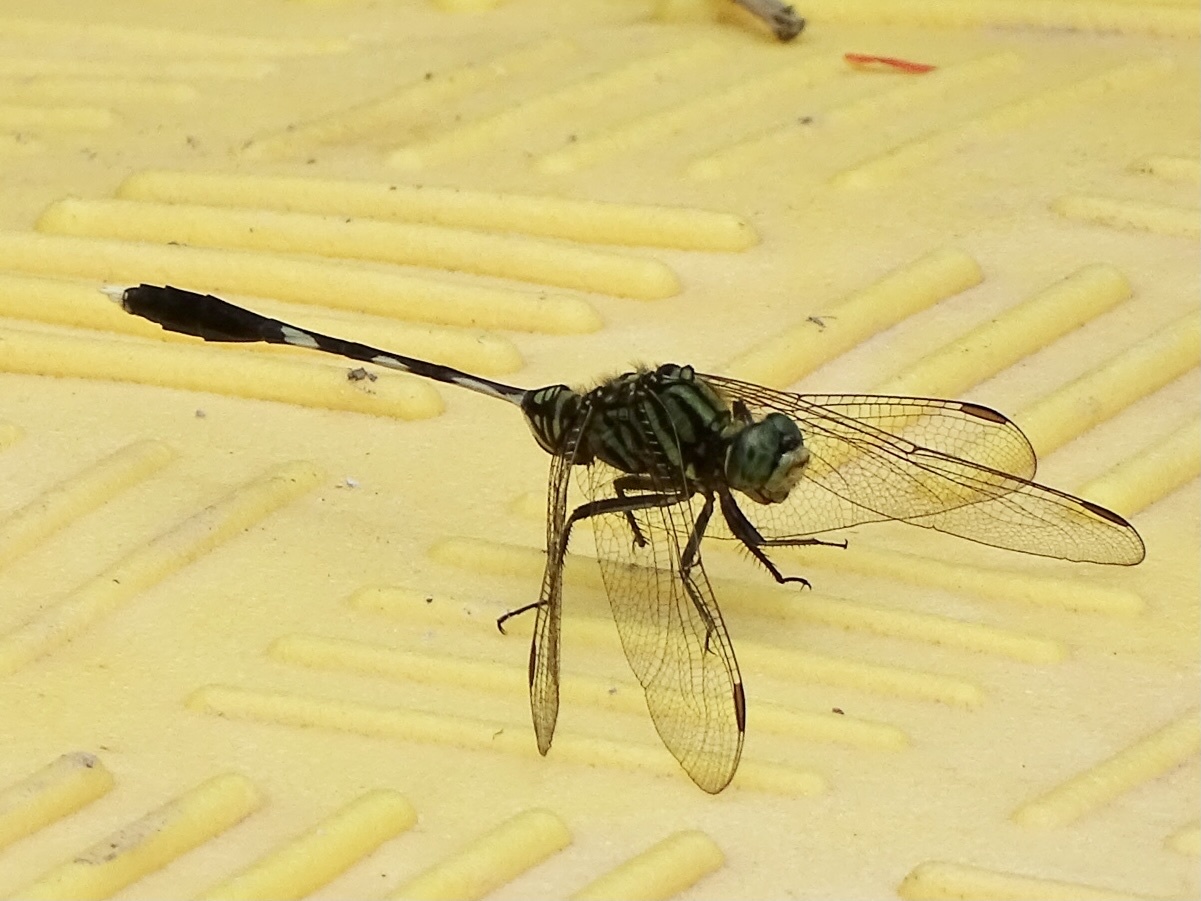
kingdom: Animalia
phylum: Arthropoda
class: Insecta
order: Odonata
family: Libellulidae
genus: Orthetrum
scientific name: Orthetrum sabina
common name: Slender skimmer
